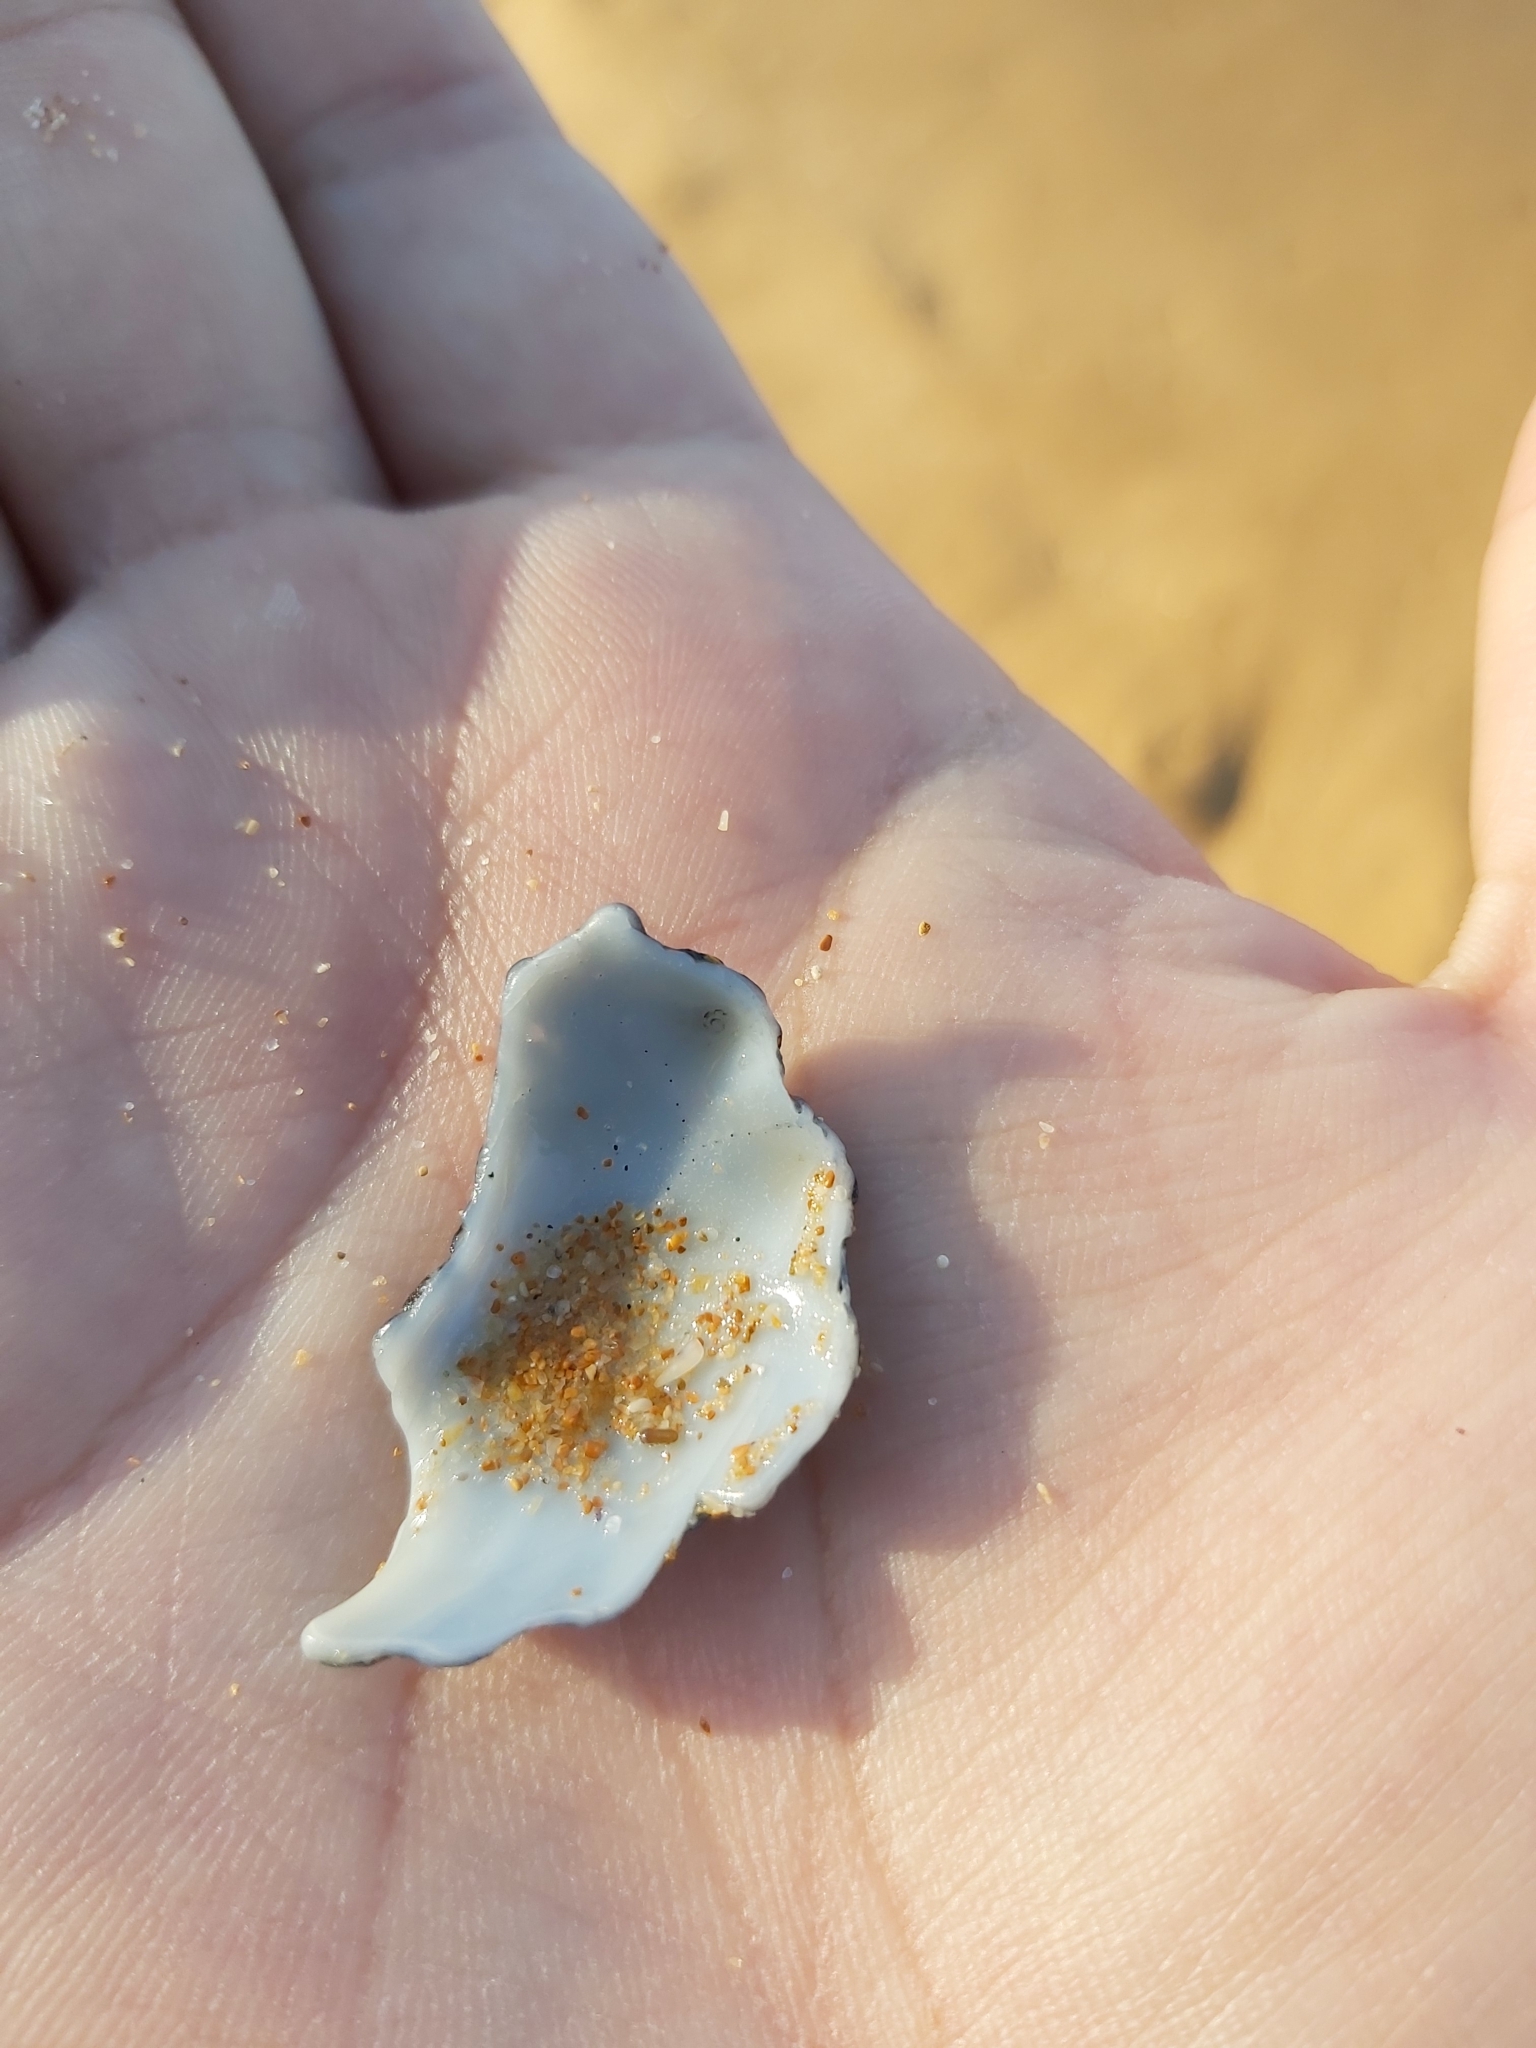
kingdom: Animalia
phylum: Mollusca
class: Gastropoda
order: Littorinimorpha
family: Cymatiidae
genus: Cabestana
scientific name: Cabestana spengleri
